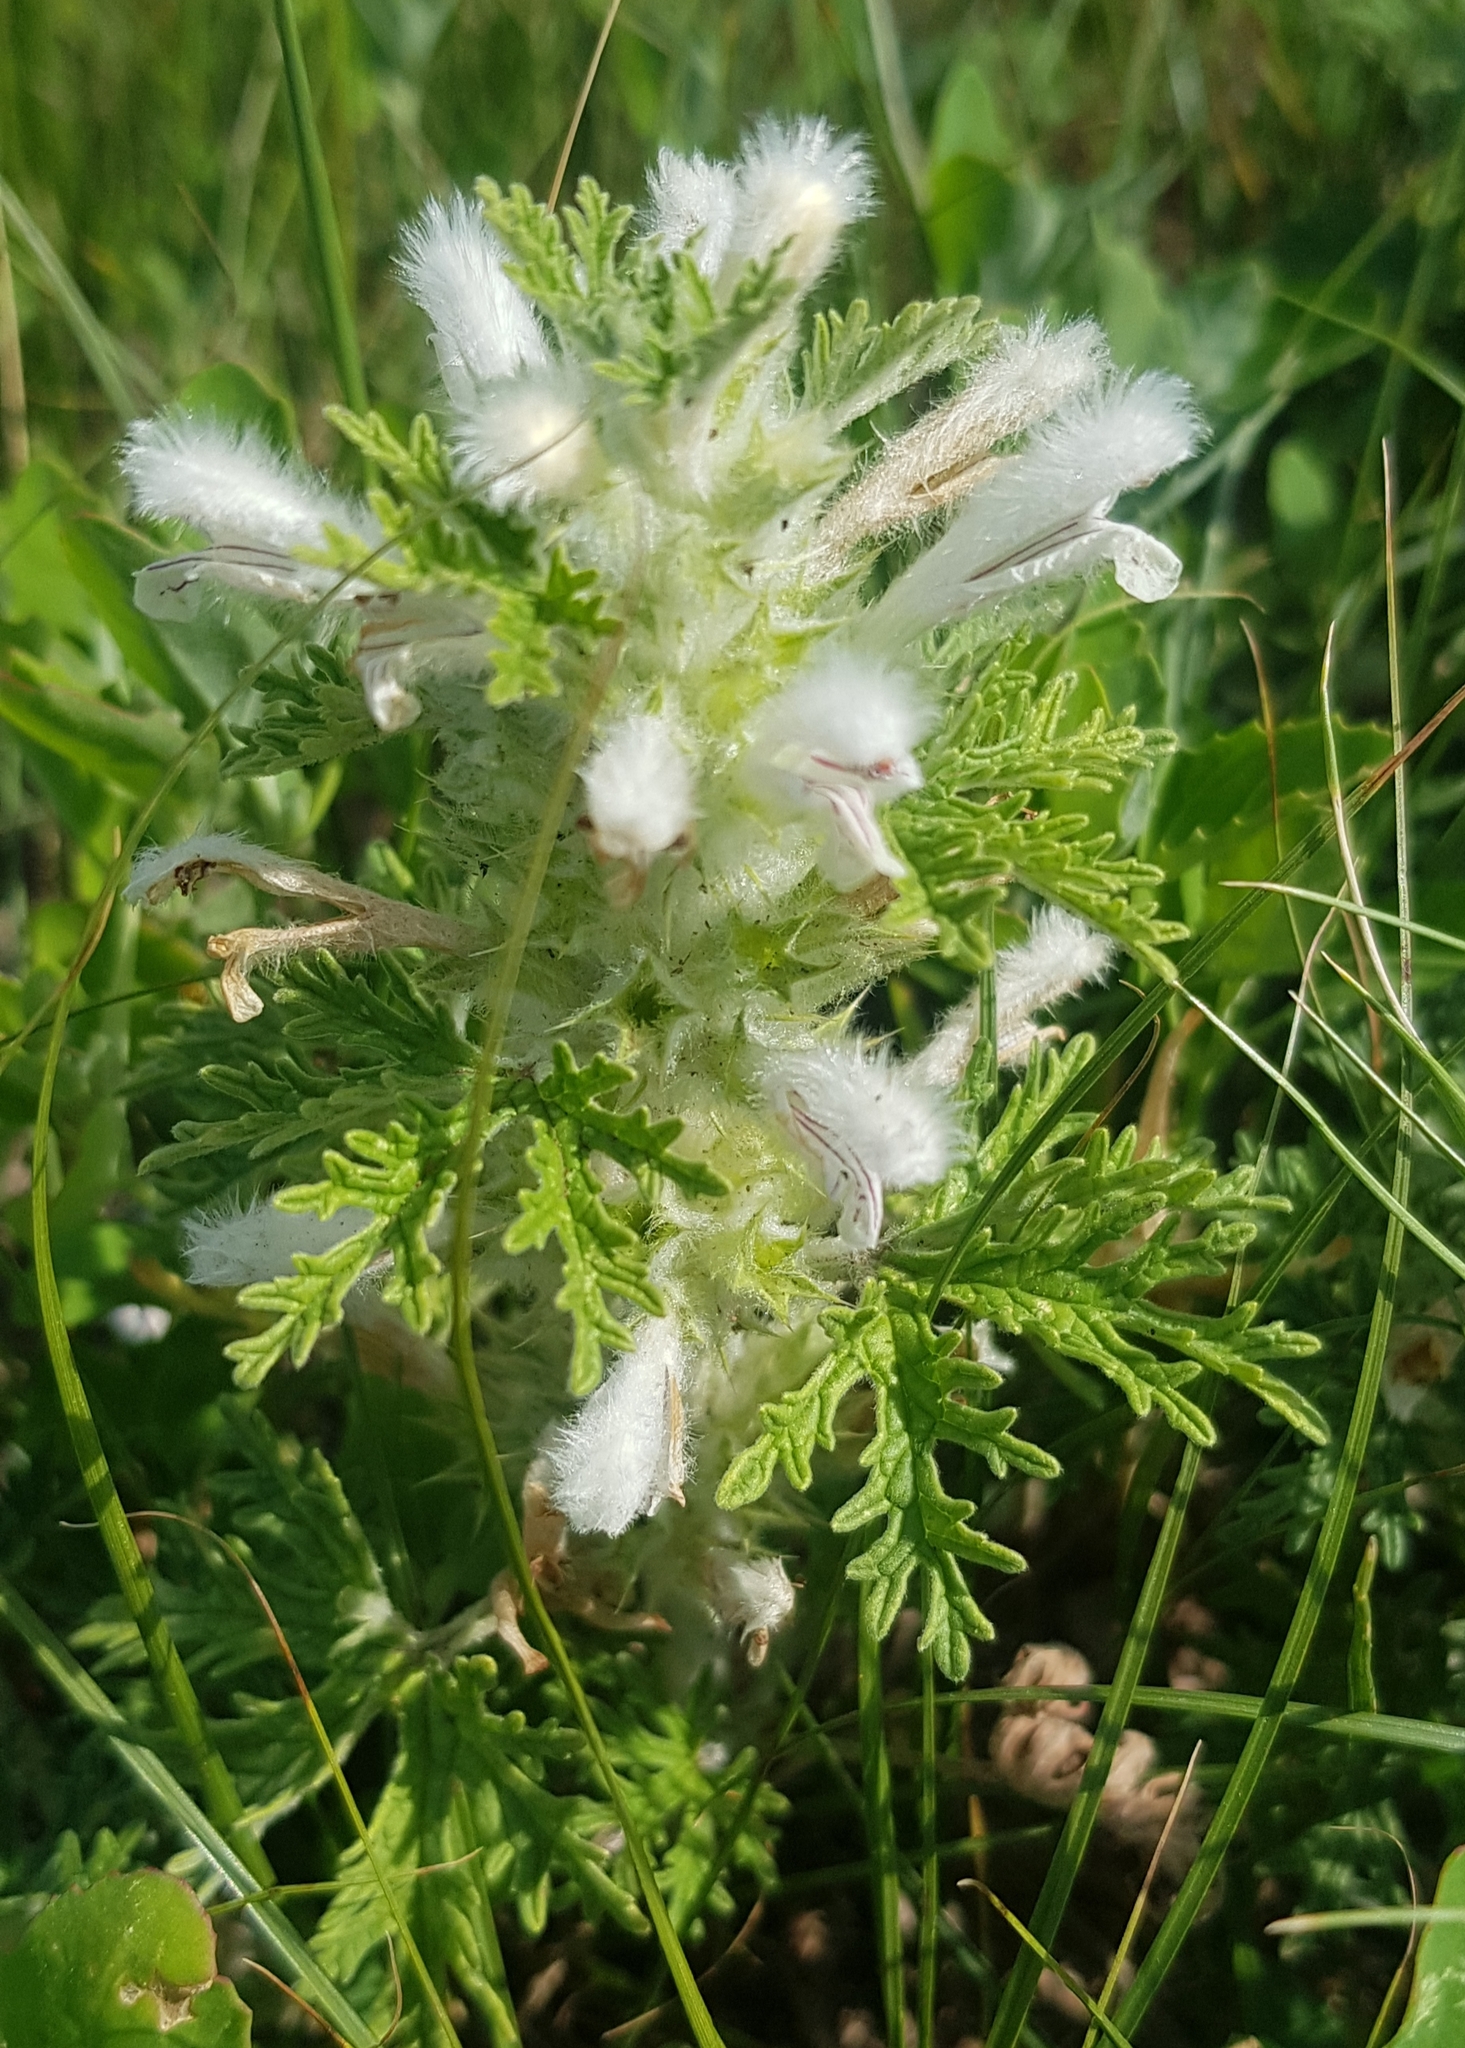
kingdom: Plantae
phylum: Tracheophyta
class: Magnoliopsida
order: Lamiales
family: Lamiaceae
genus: Panzerina
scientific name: Panzerina lanata
